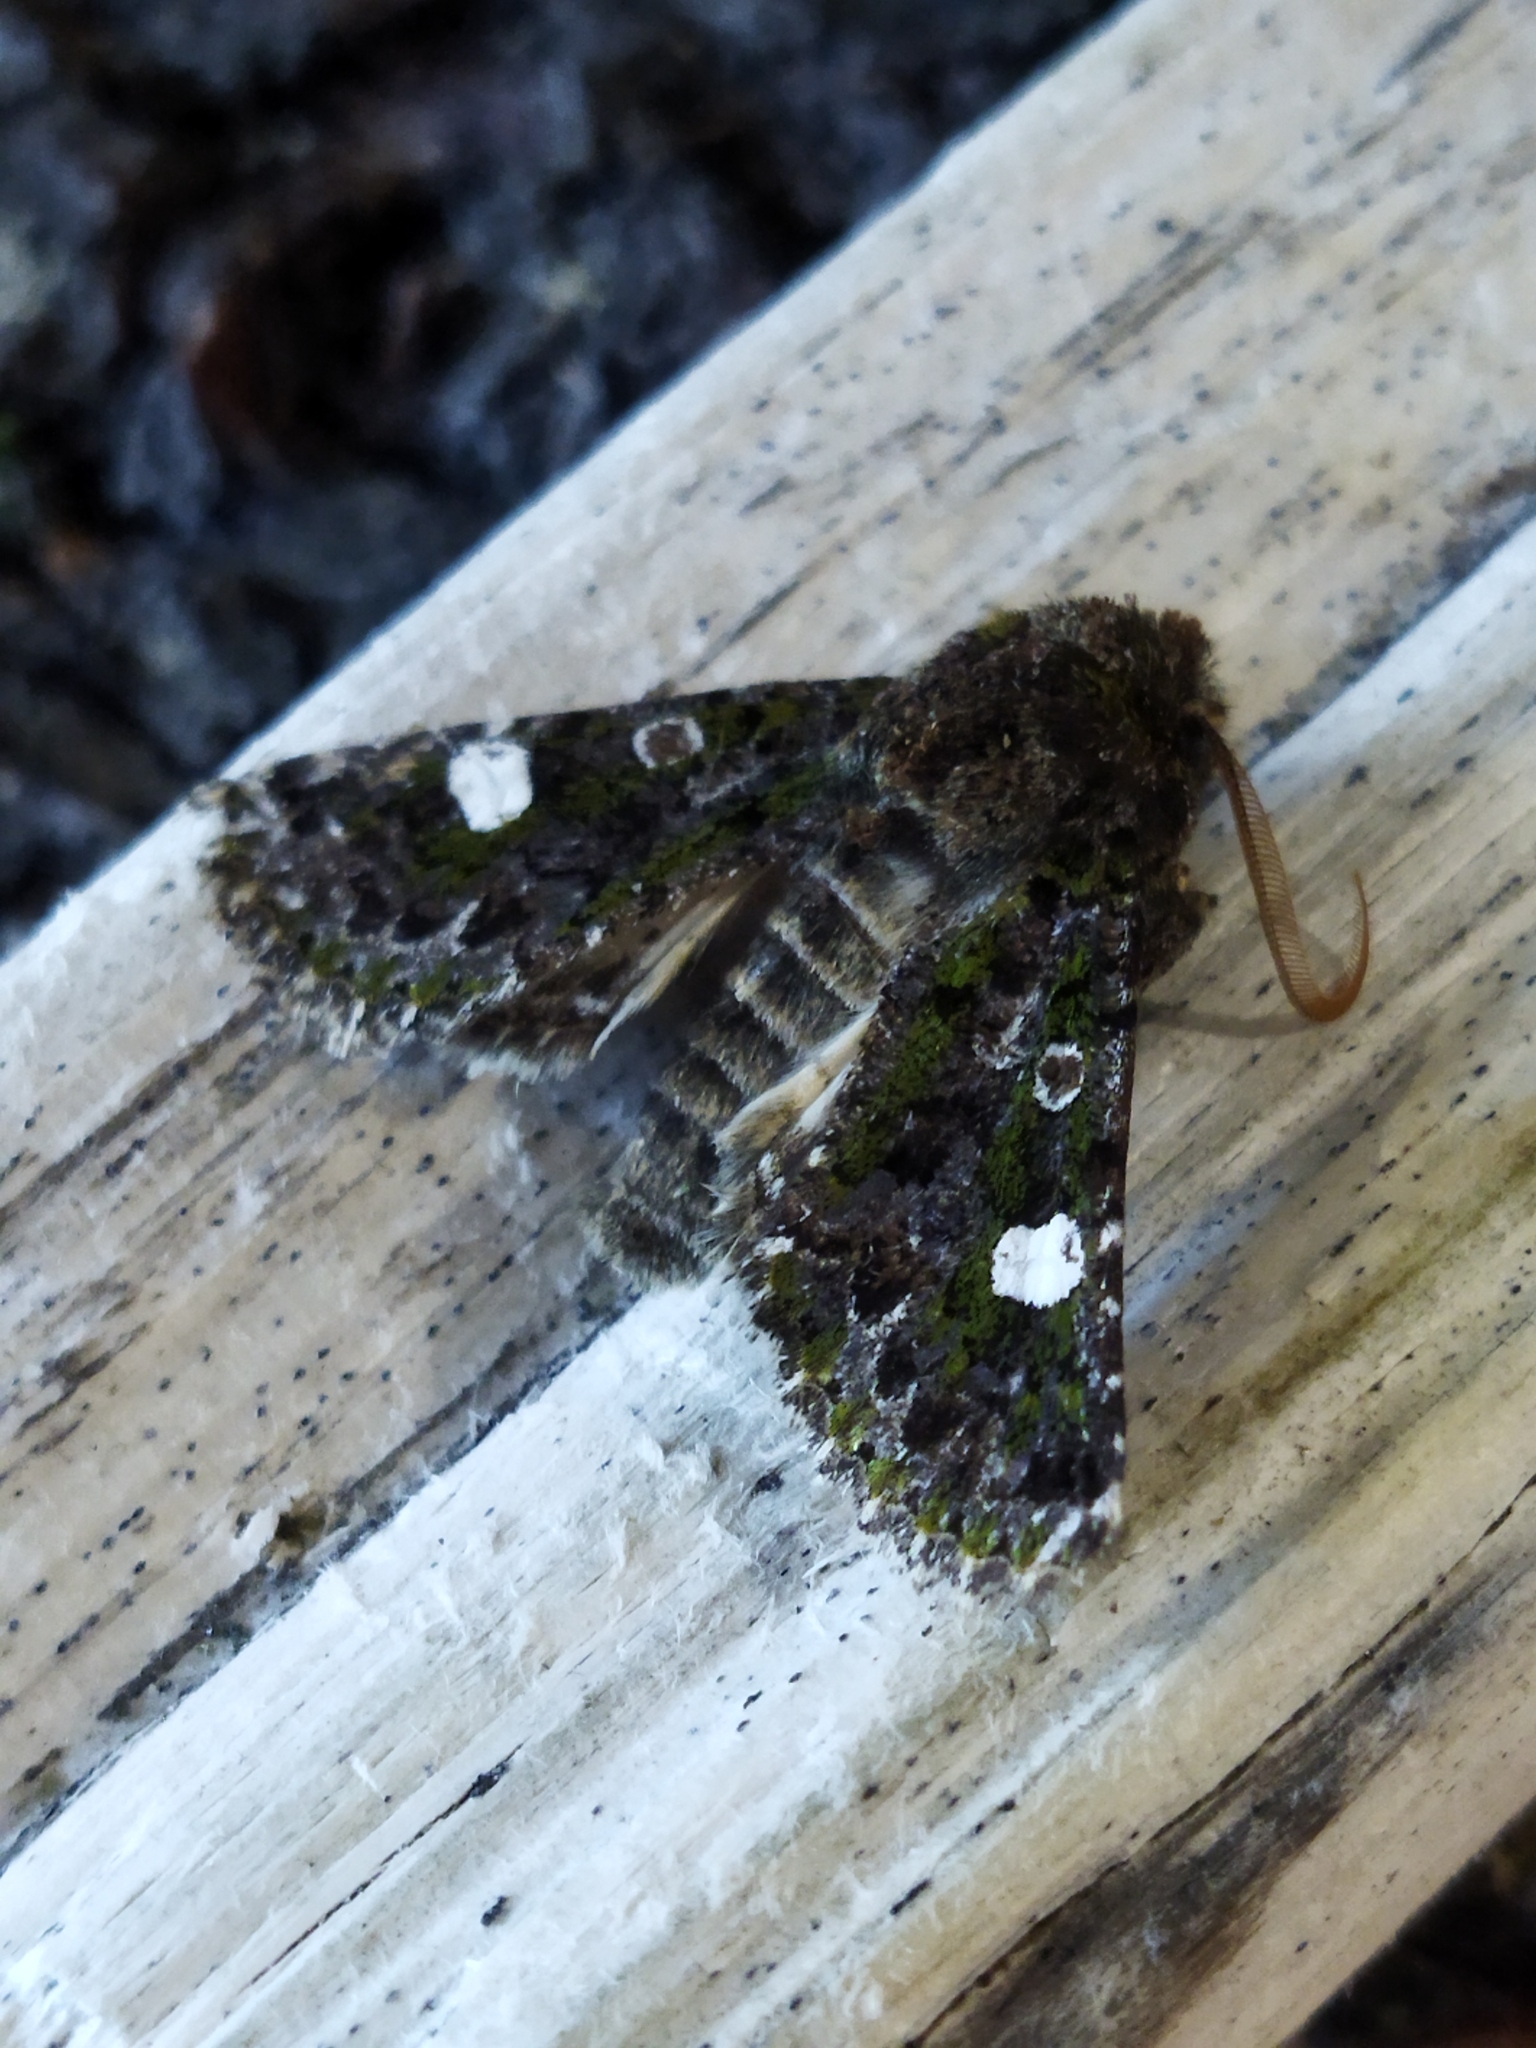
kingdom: Animalia
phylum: Arthropoda
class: Insecta
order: Lepidoptera
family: Noctuidae
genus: Valeria
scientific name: Valeria oleagina
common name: Green-brindled dot
